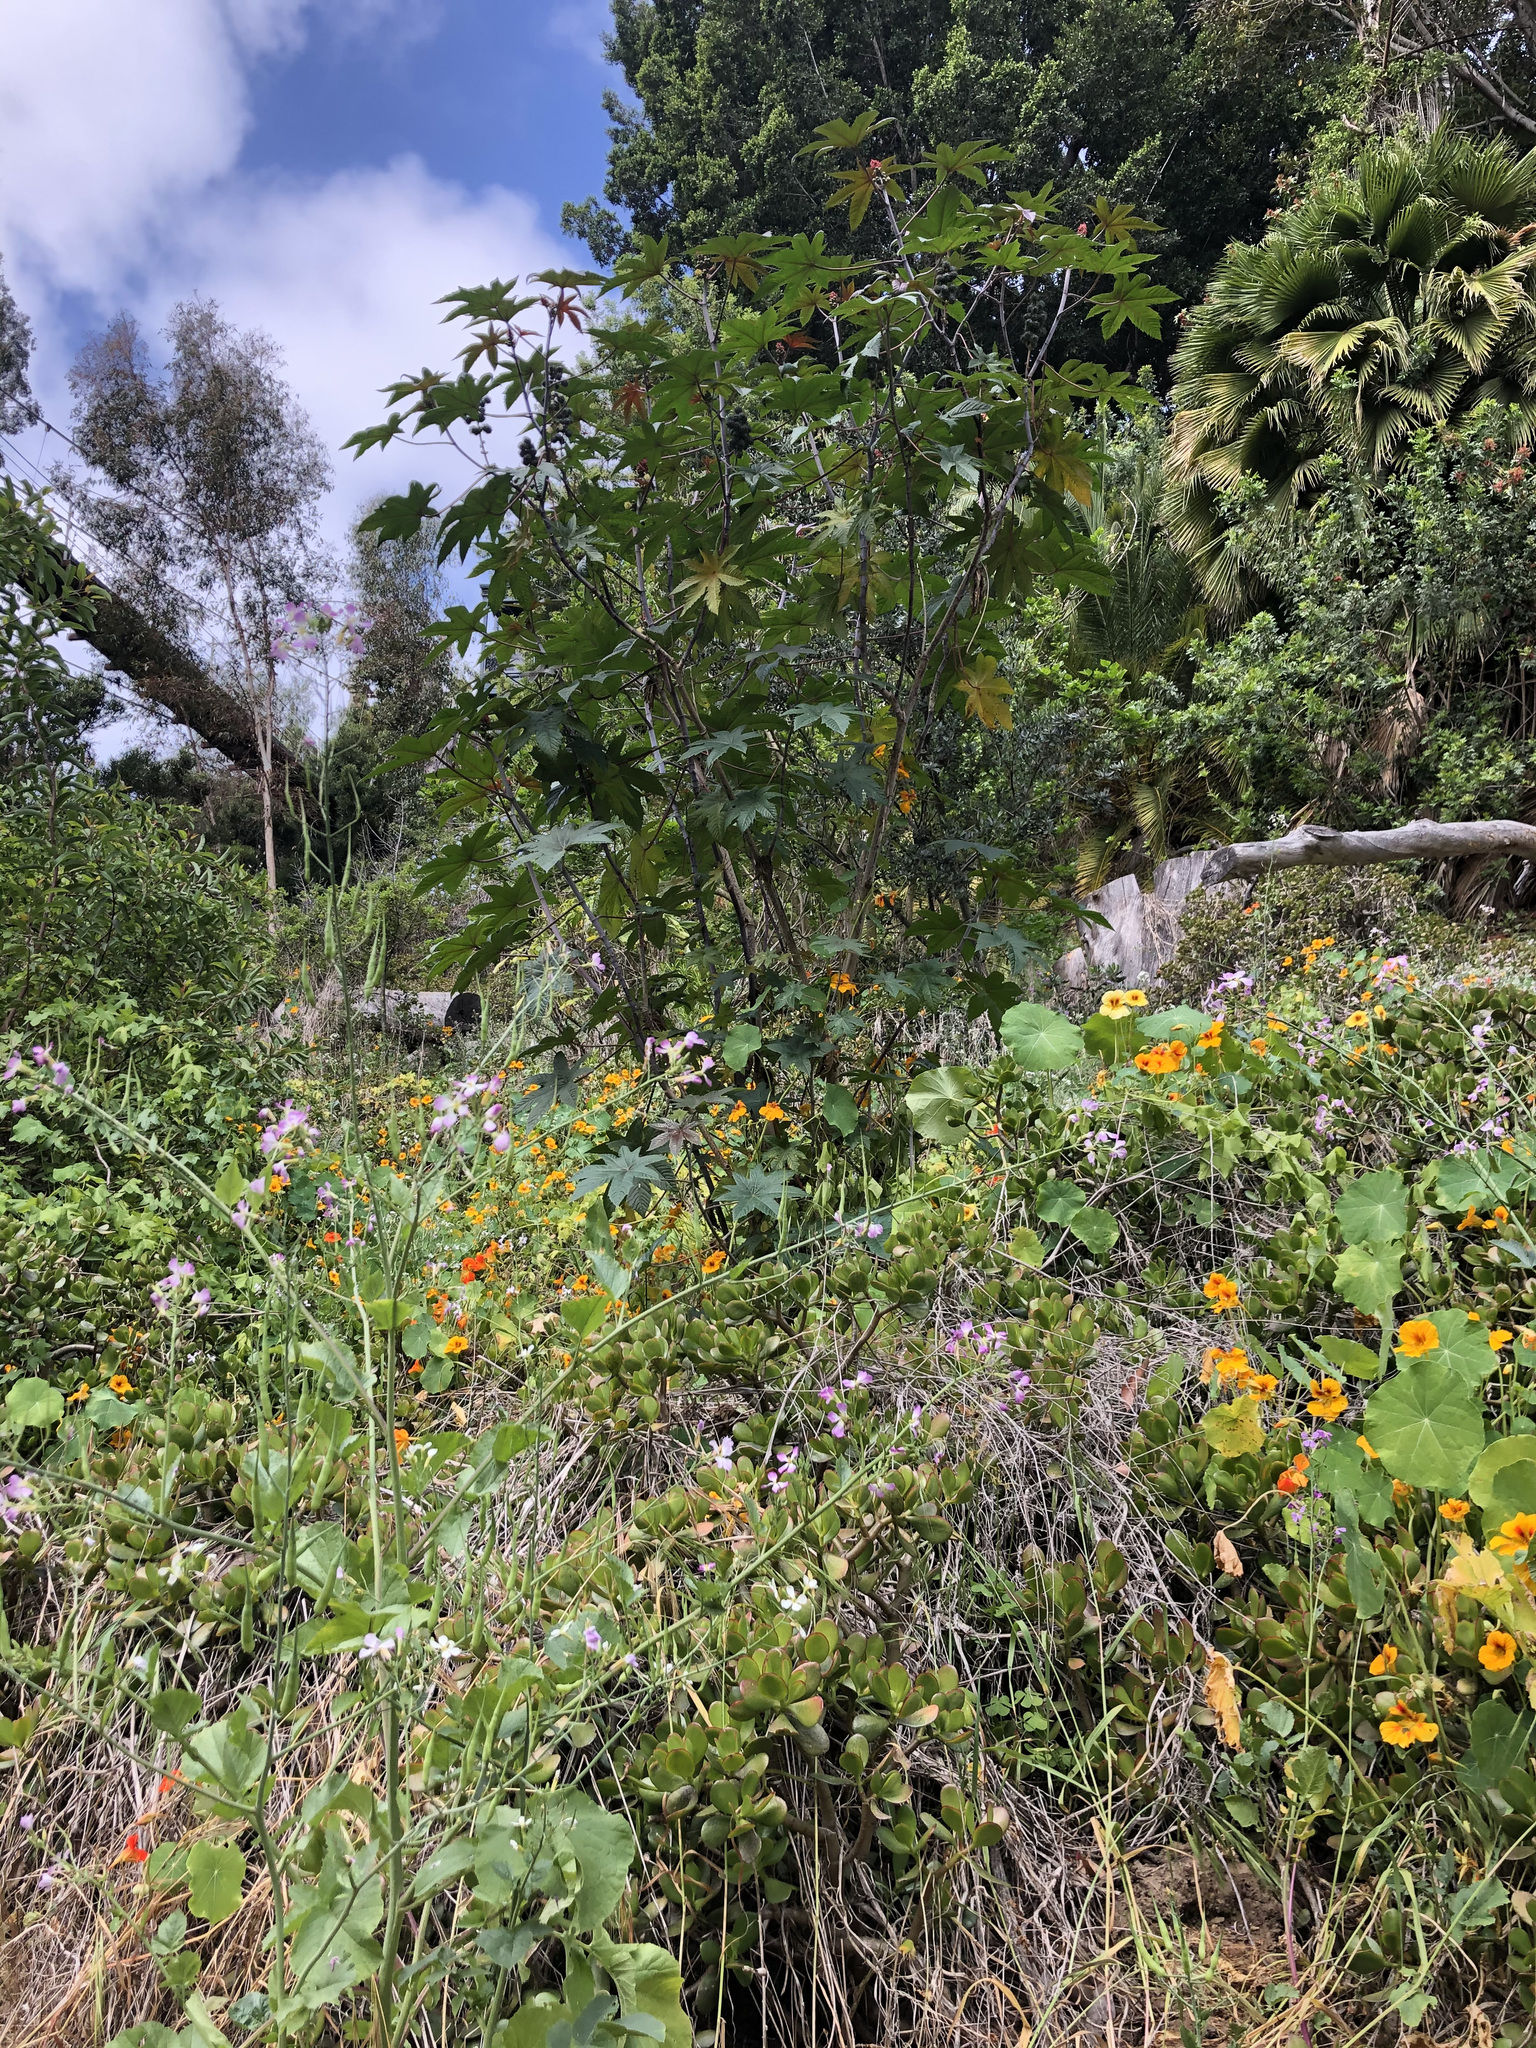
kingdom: Plantae
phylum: Tracheophyta
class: Magnoliopsida
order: Malpighiales
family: Euphorbiaceae
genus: Ricinus
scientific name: Ricinus communis
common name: Castor-oil-plant
